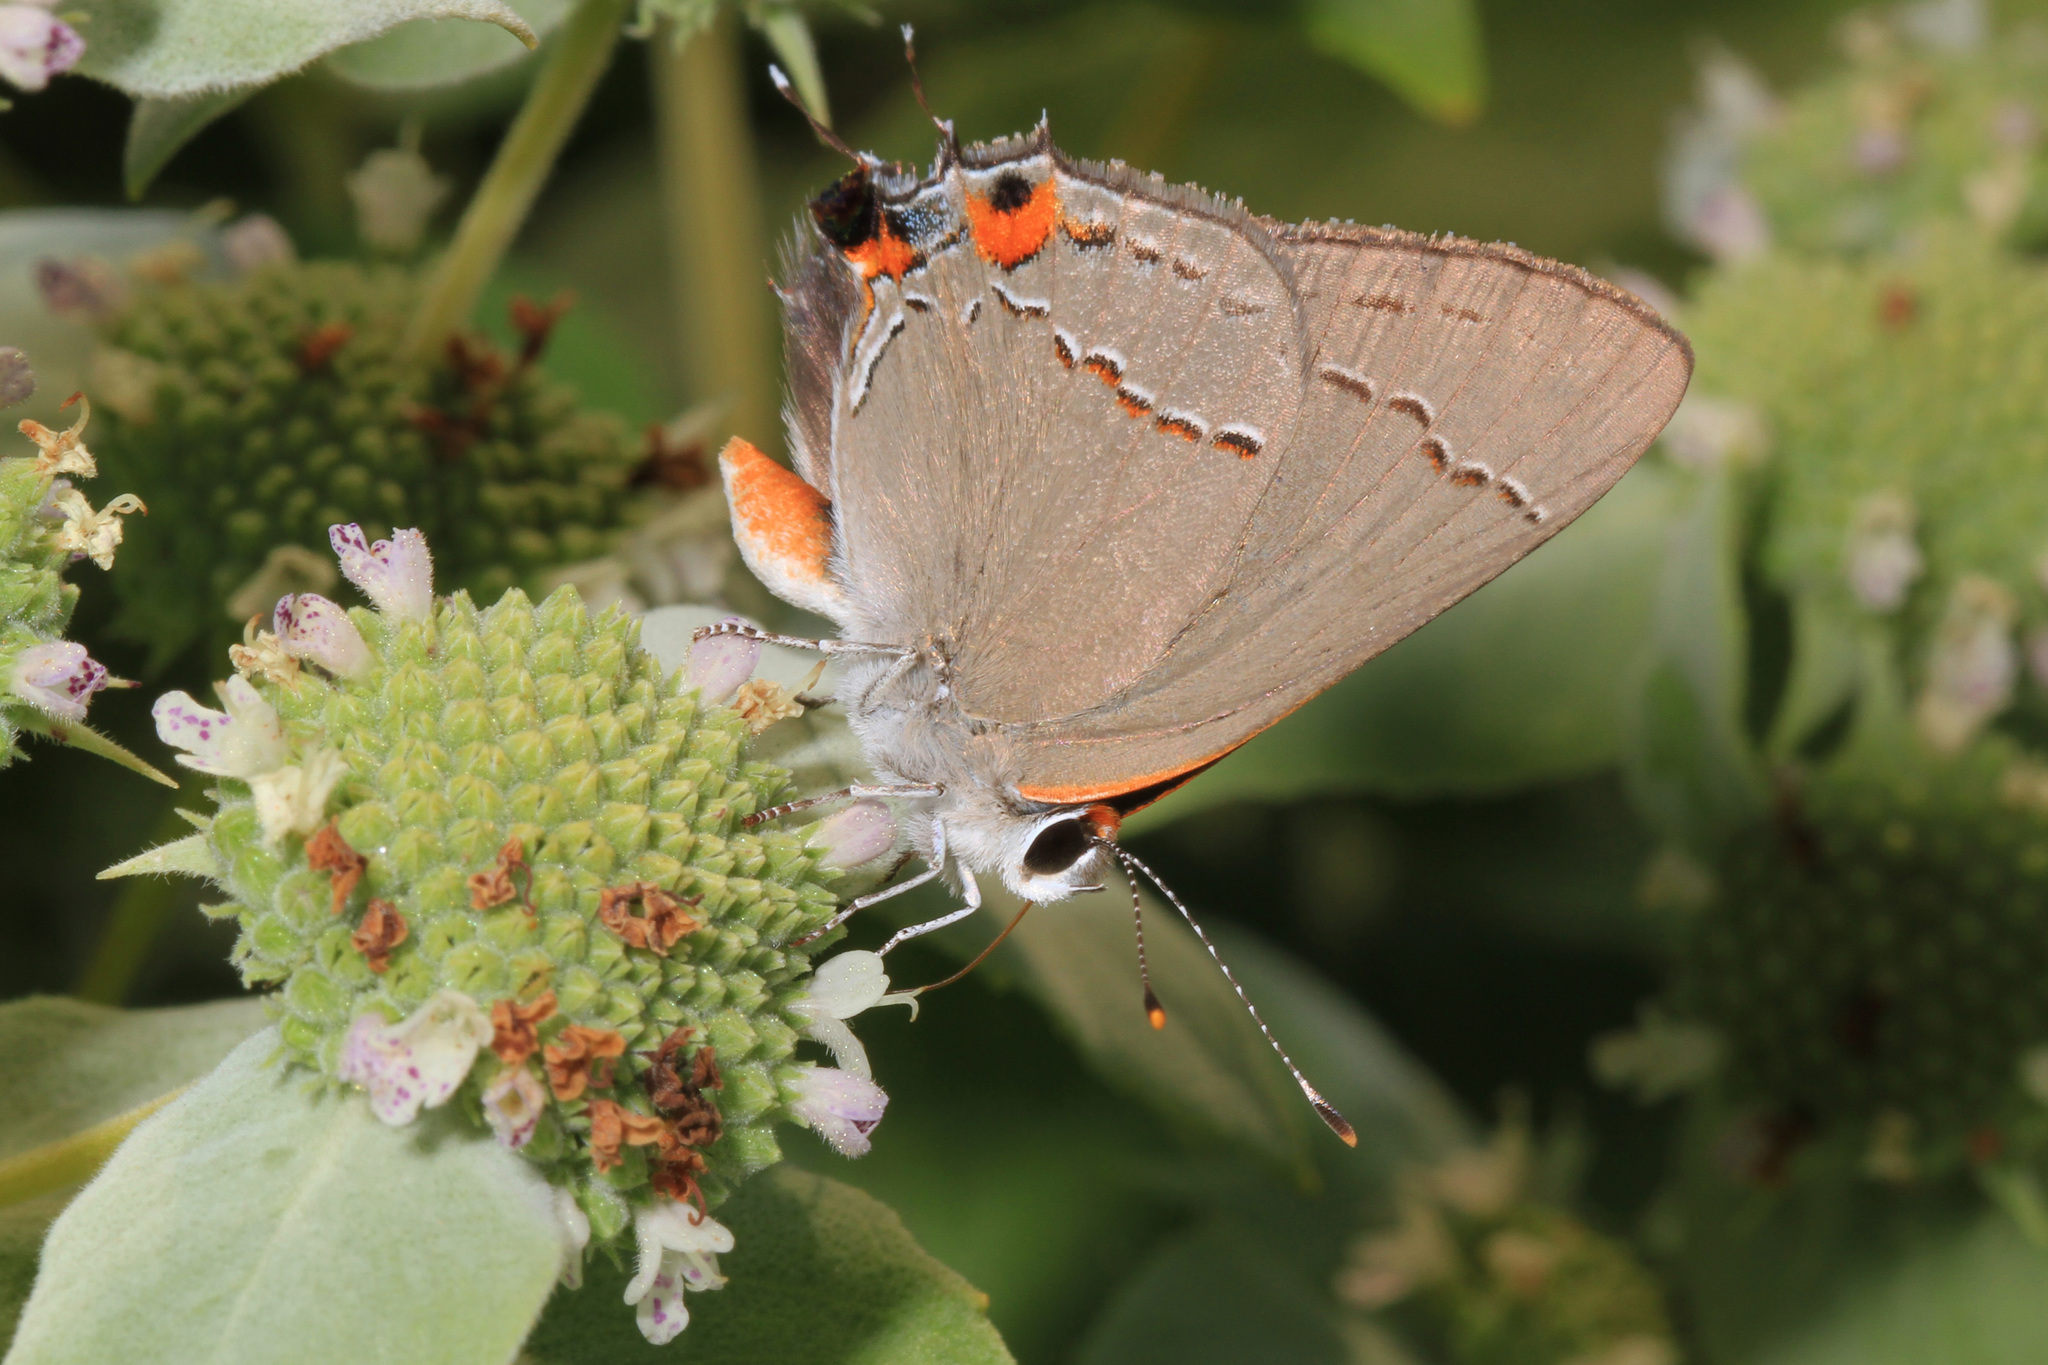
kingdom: Animalia
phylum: Arthropoda
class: Insecta
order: Lepidoptera
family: Lycaenidae
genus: Strymon
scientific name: Strymon melinus
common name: Gray hairstreak
